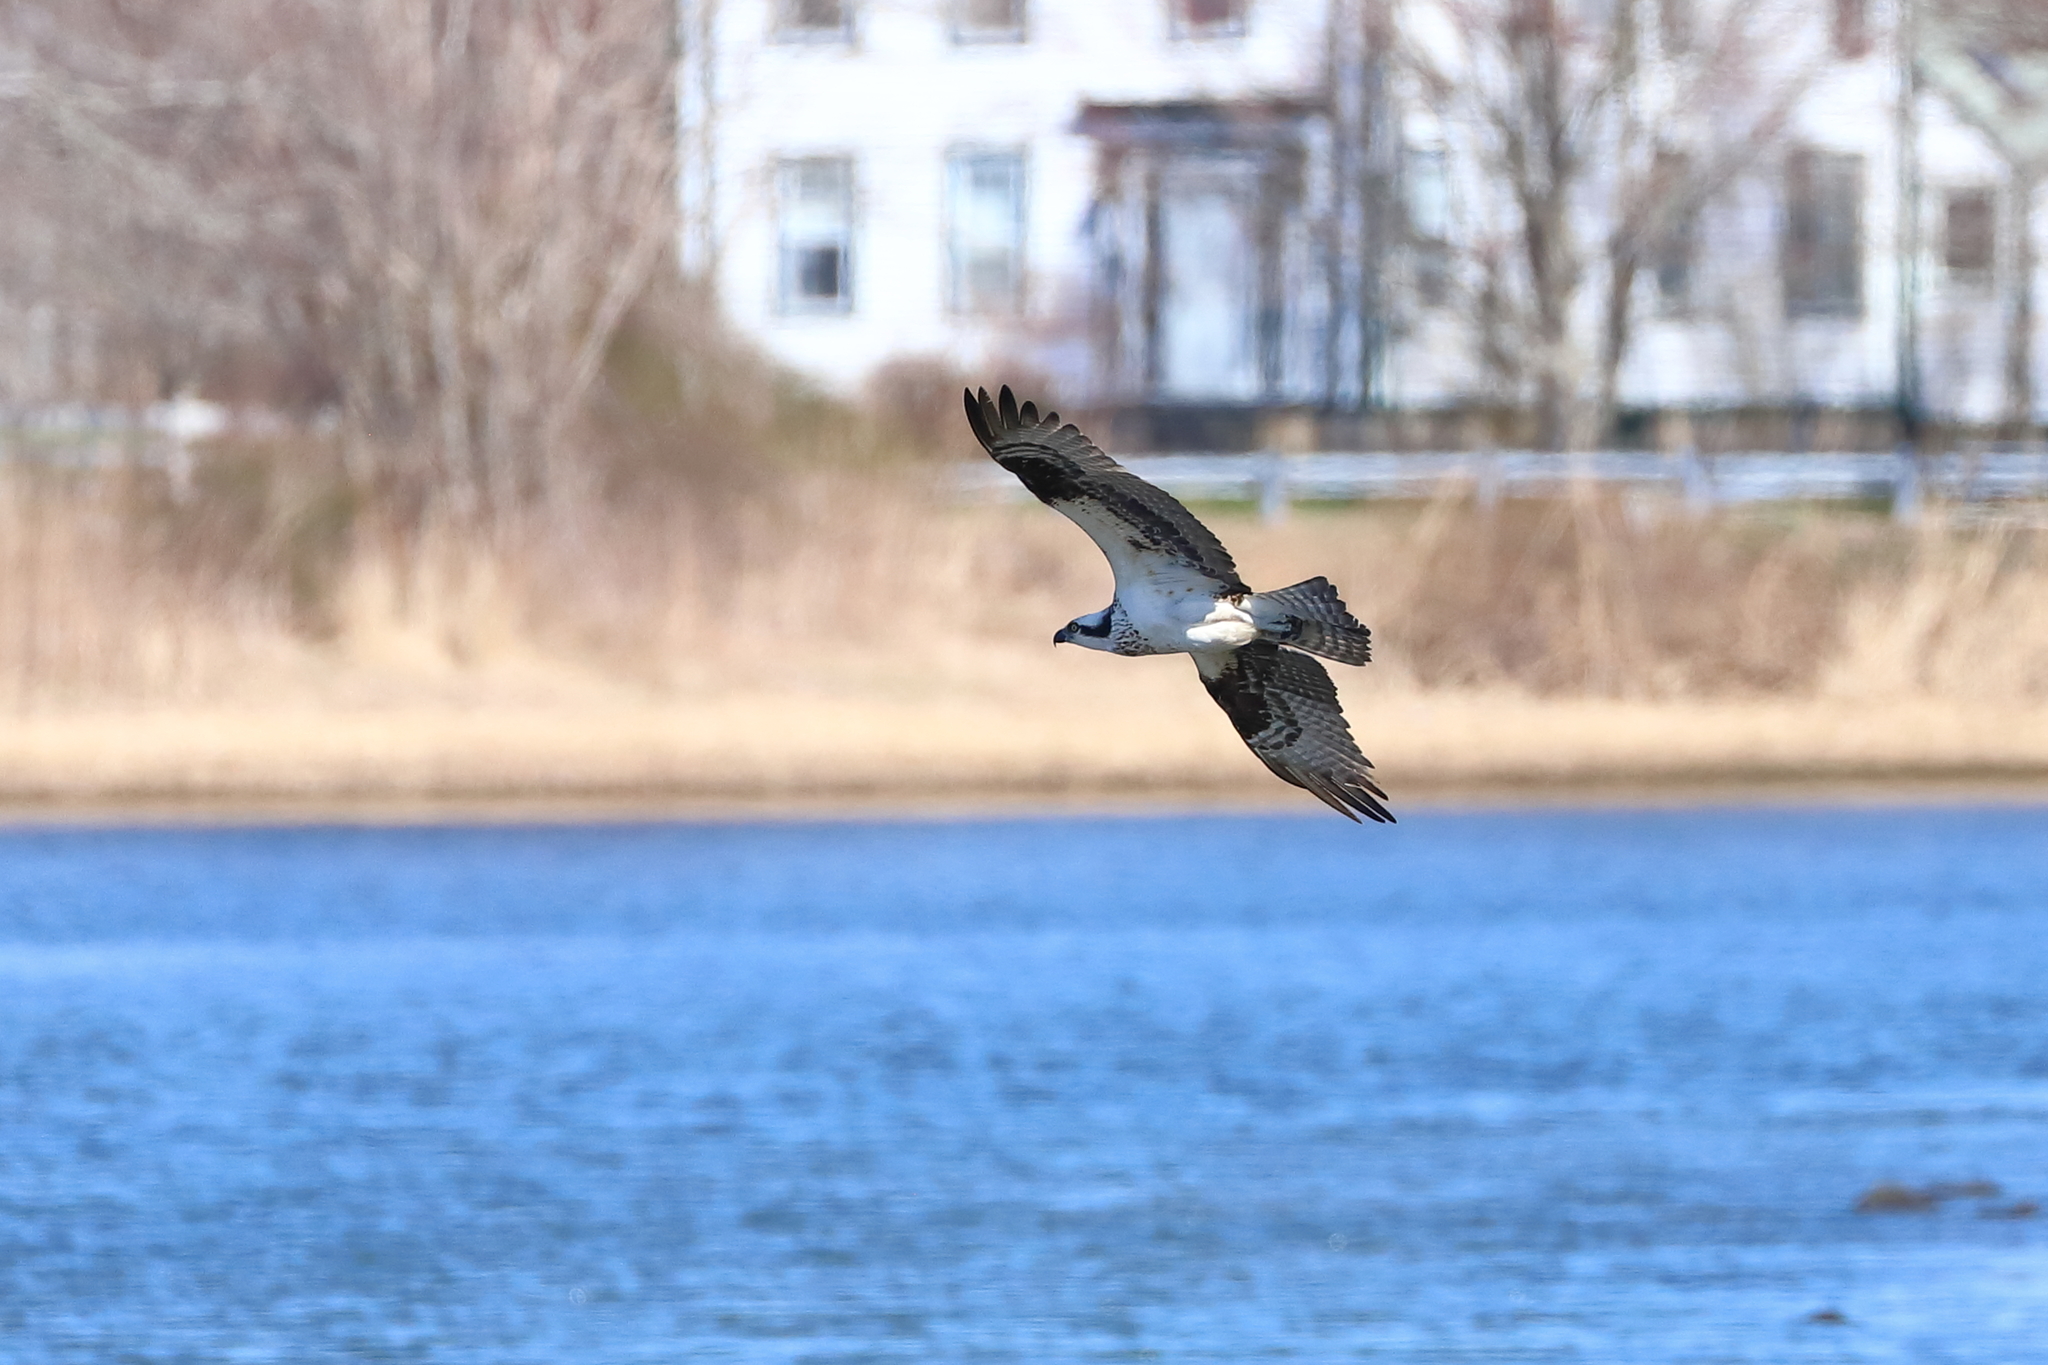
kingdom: Animalia
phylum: Chordata
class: Aves
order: Accipitriformes
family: Pandionidae
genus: Pandion
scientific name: Pandion haliaetus
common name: Osprey
